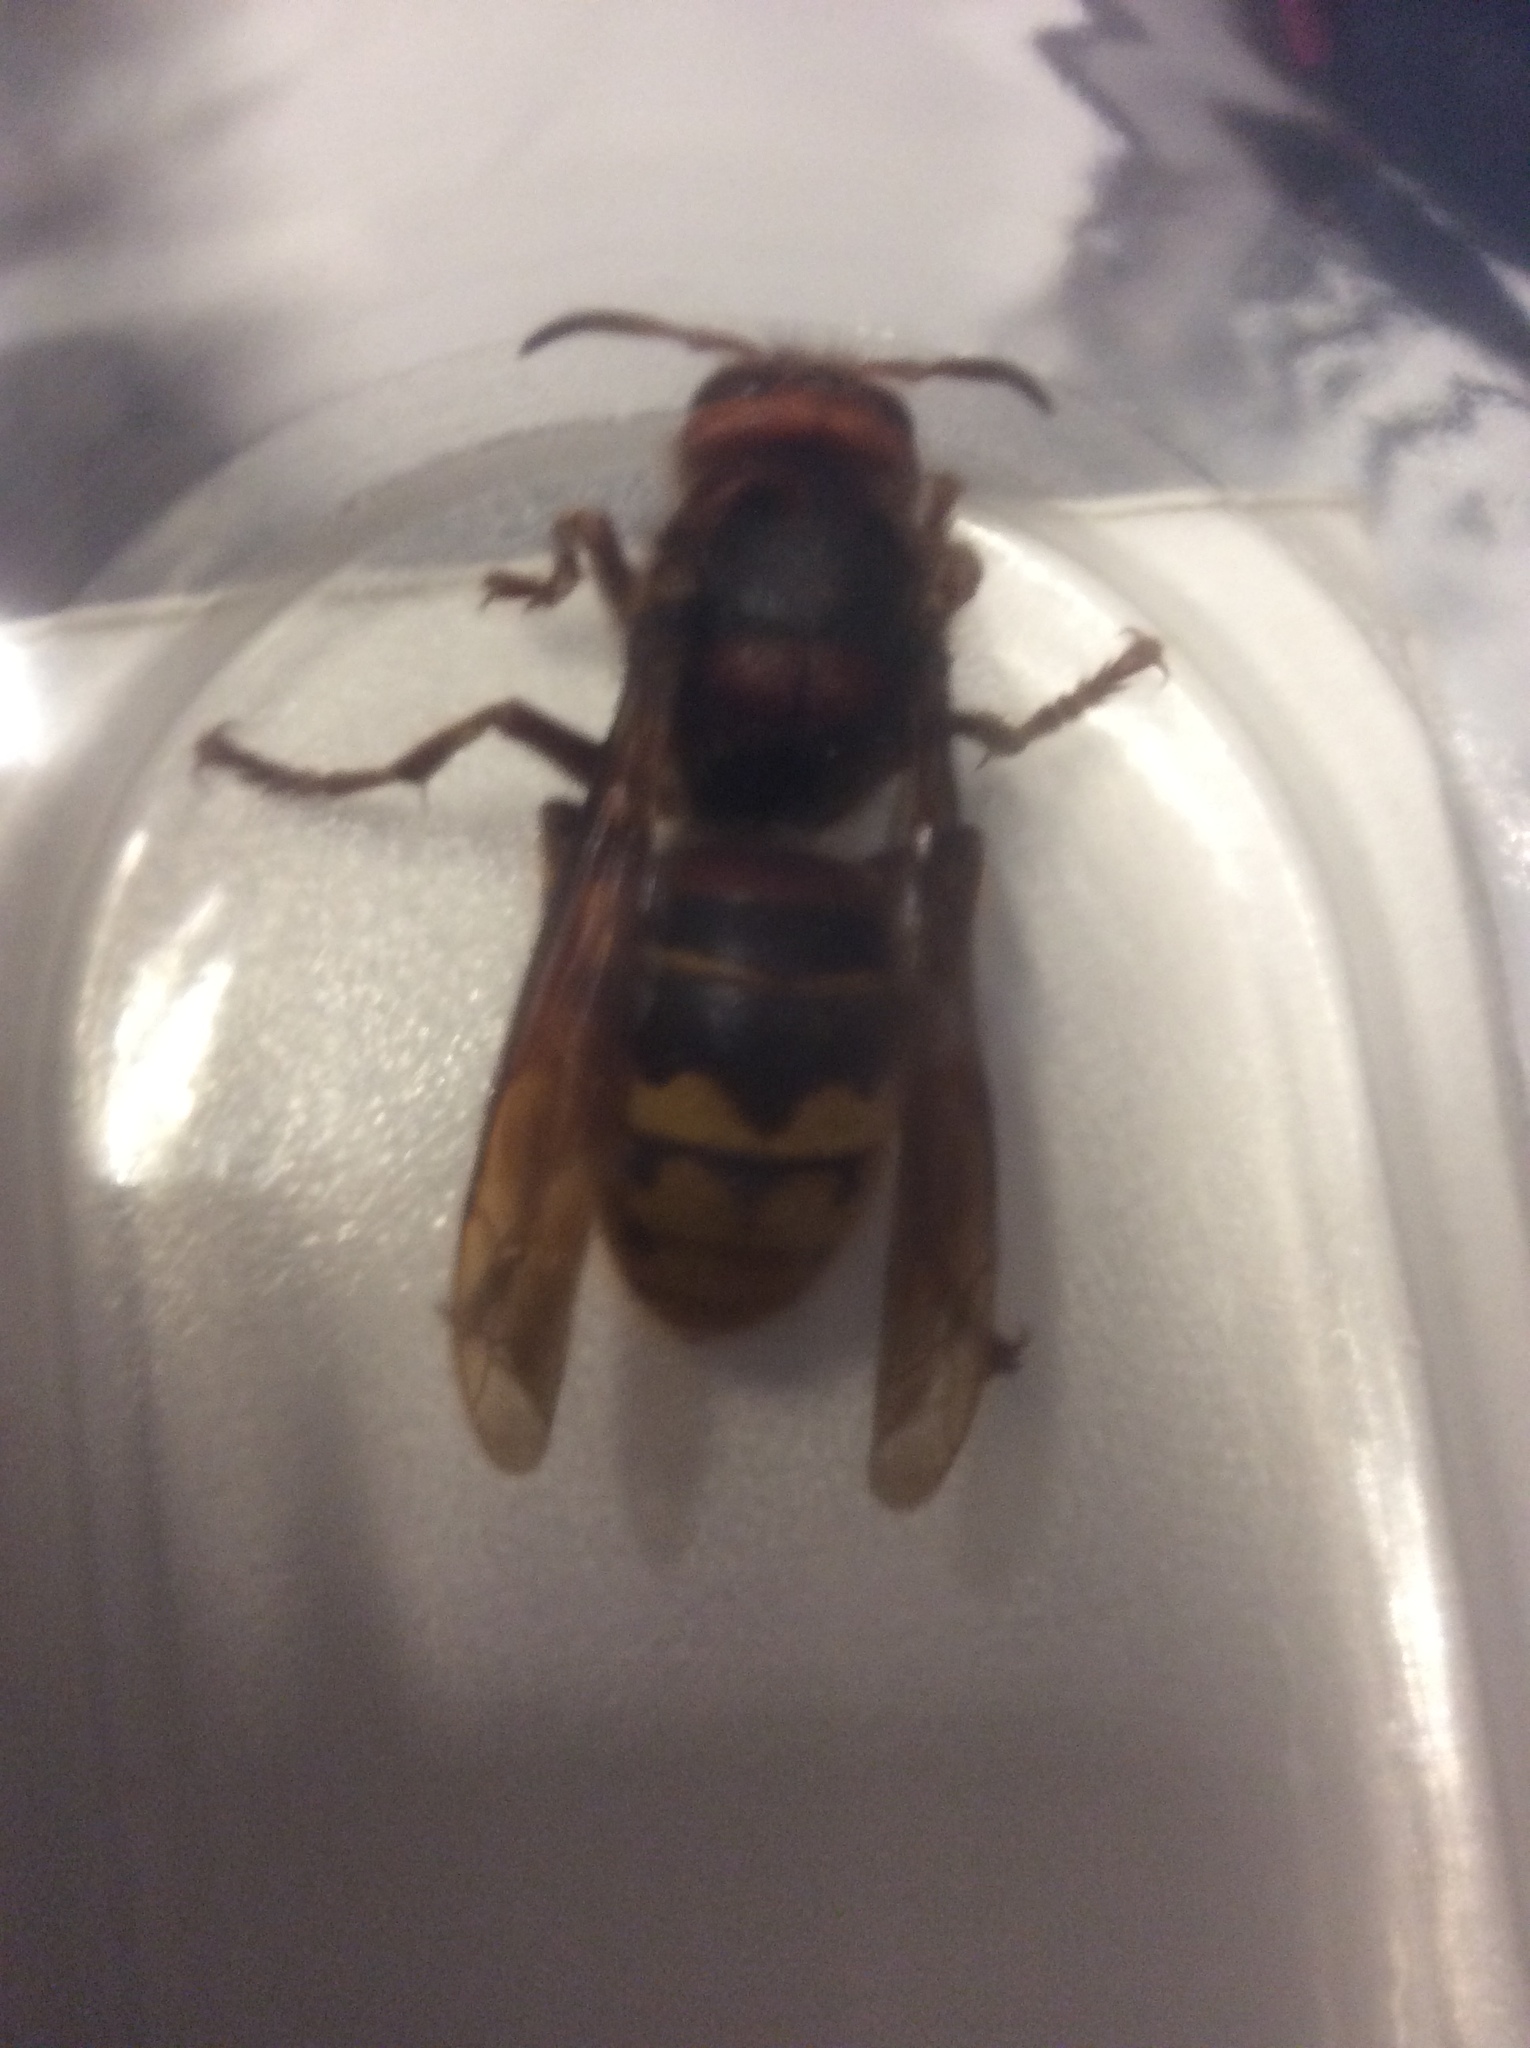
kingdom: Animalia
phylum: Arthropoda
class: Insecta
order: Hymenoptera
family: Vespidae
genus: Vespa
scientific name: Vespa crabro
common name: Hornet
